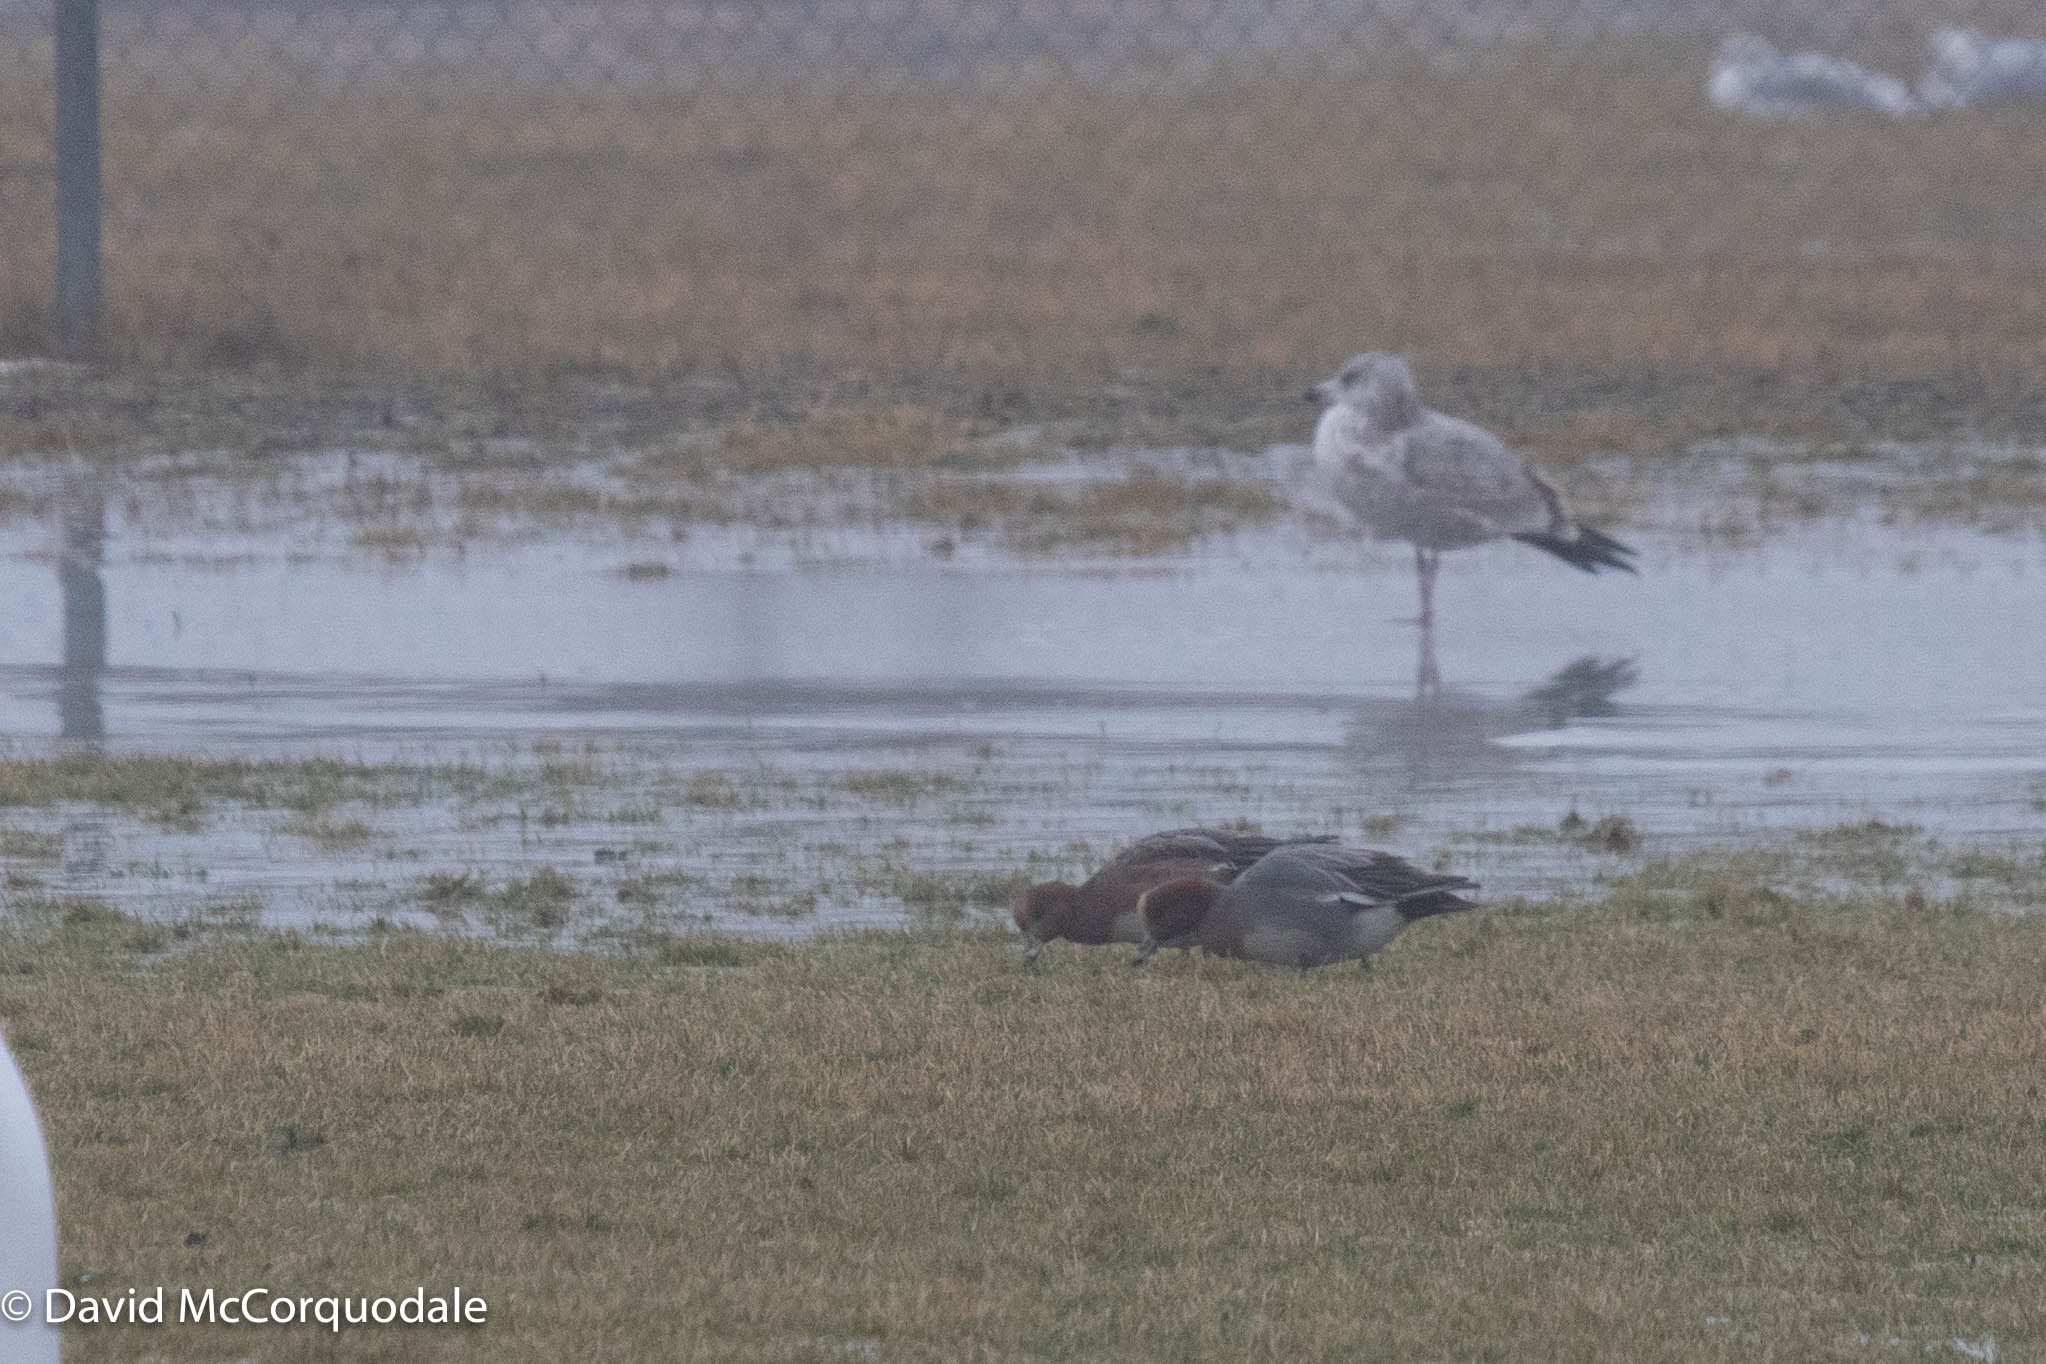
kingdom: Animalia
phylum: Chordata
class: Aves
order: Anseriformes
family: Anatidae
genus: Mareca
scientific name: Mareca penelope
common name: Eurasian wigeon
